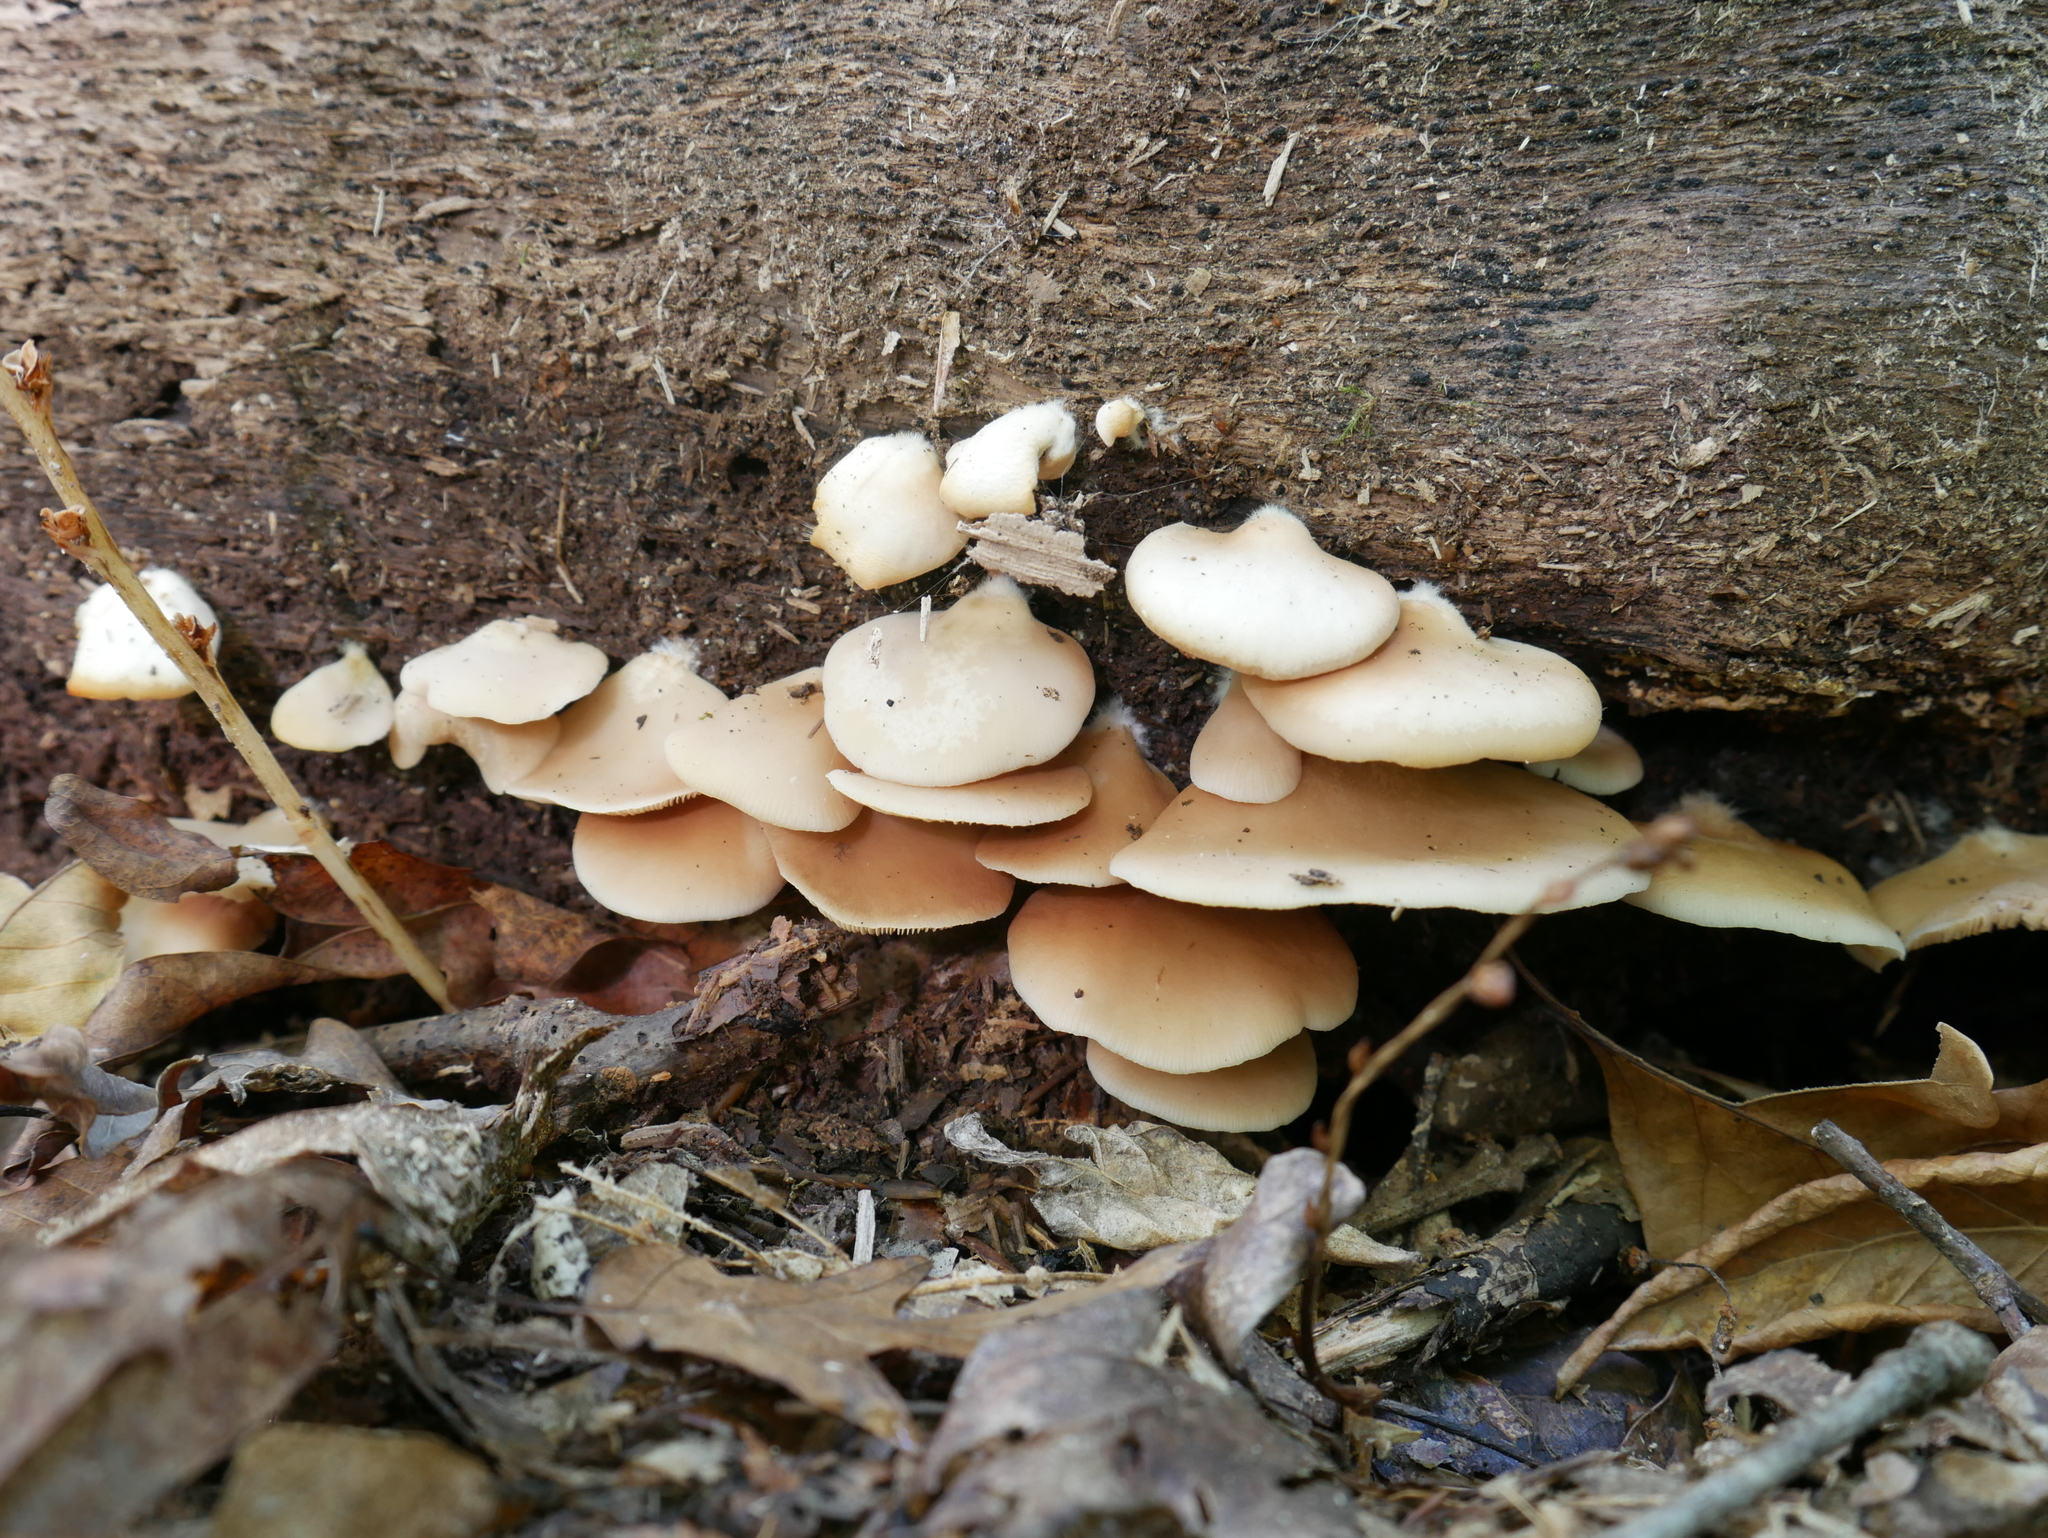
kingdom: Fungi
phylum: Basidiomycota
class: Agaricomycetes
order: Agaricales
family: Crepidotaceae
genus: Crepidotus
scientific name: Crepidotus applanatus
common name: Flat crep
